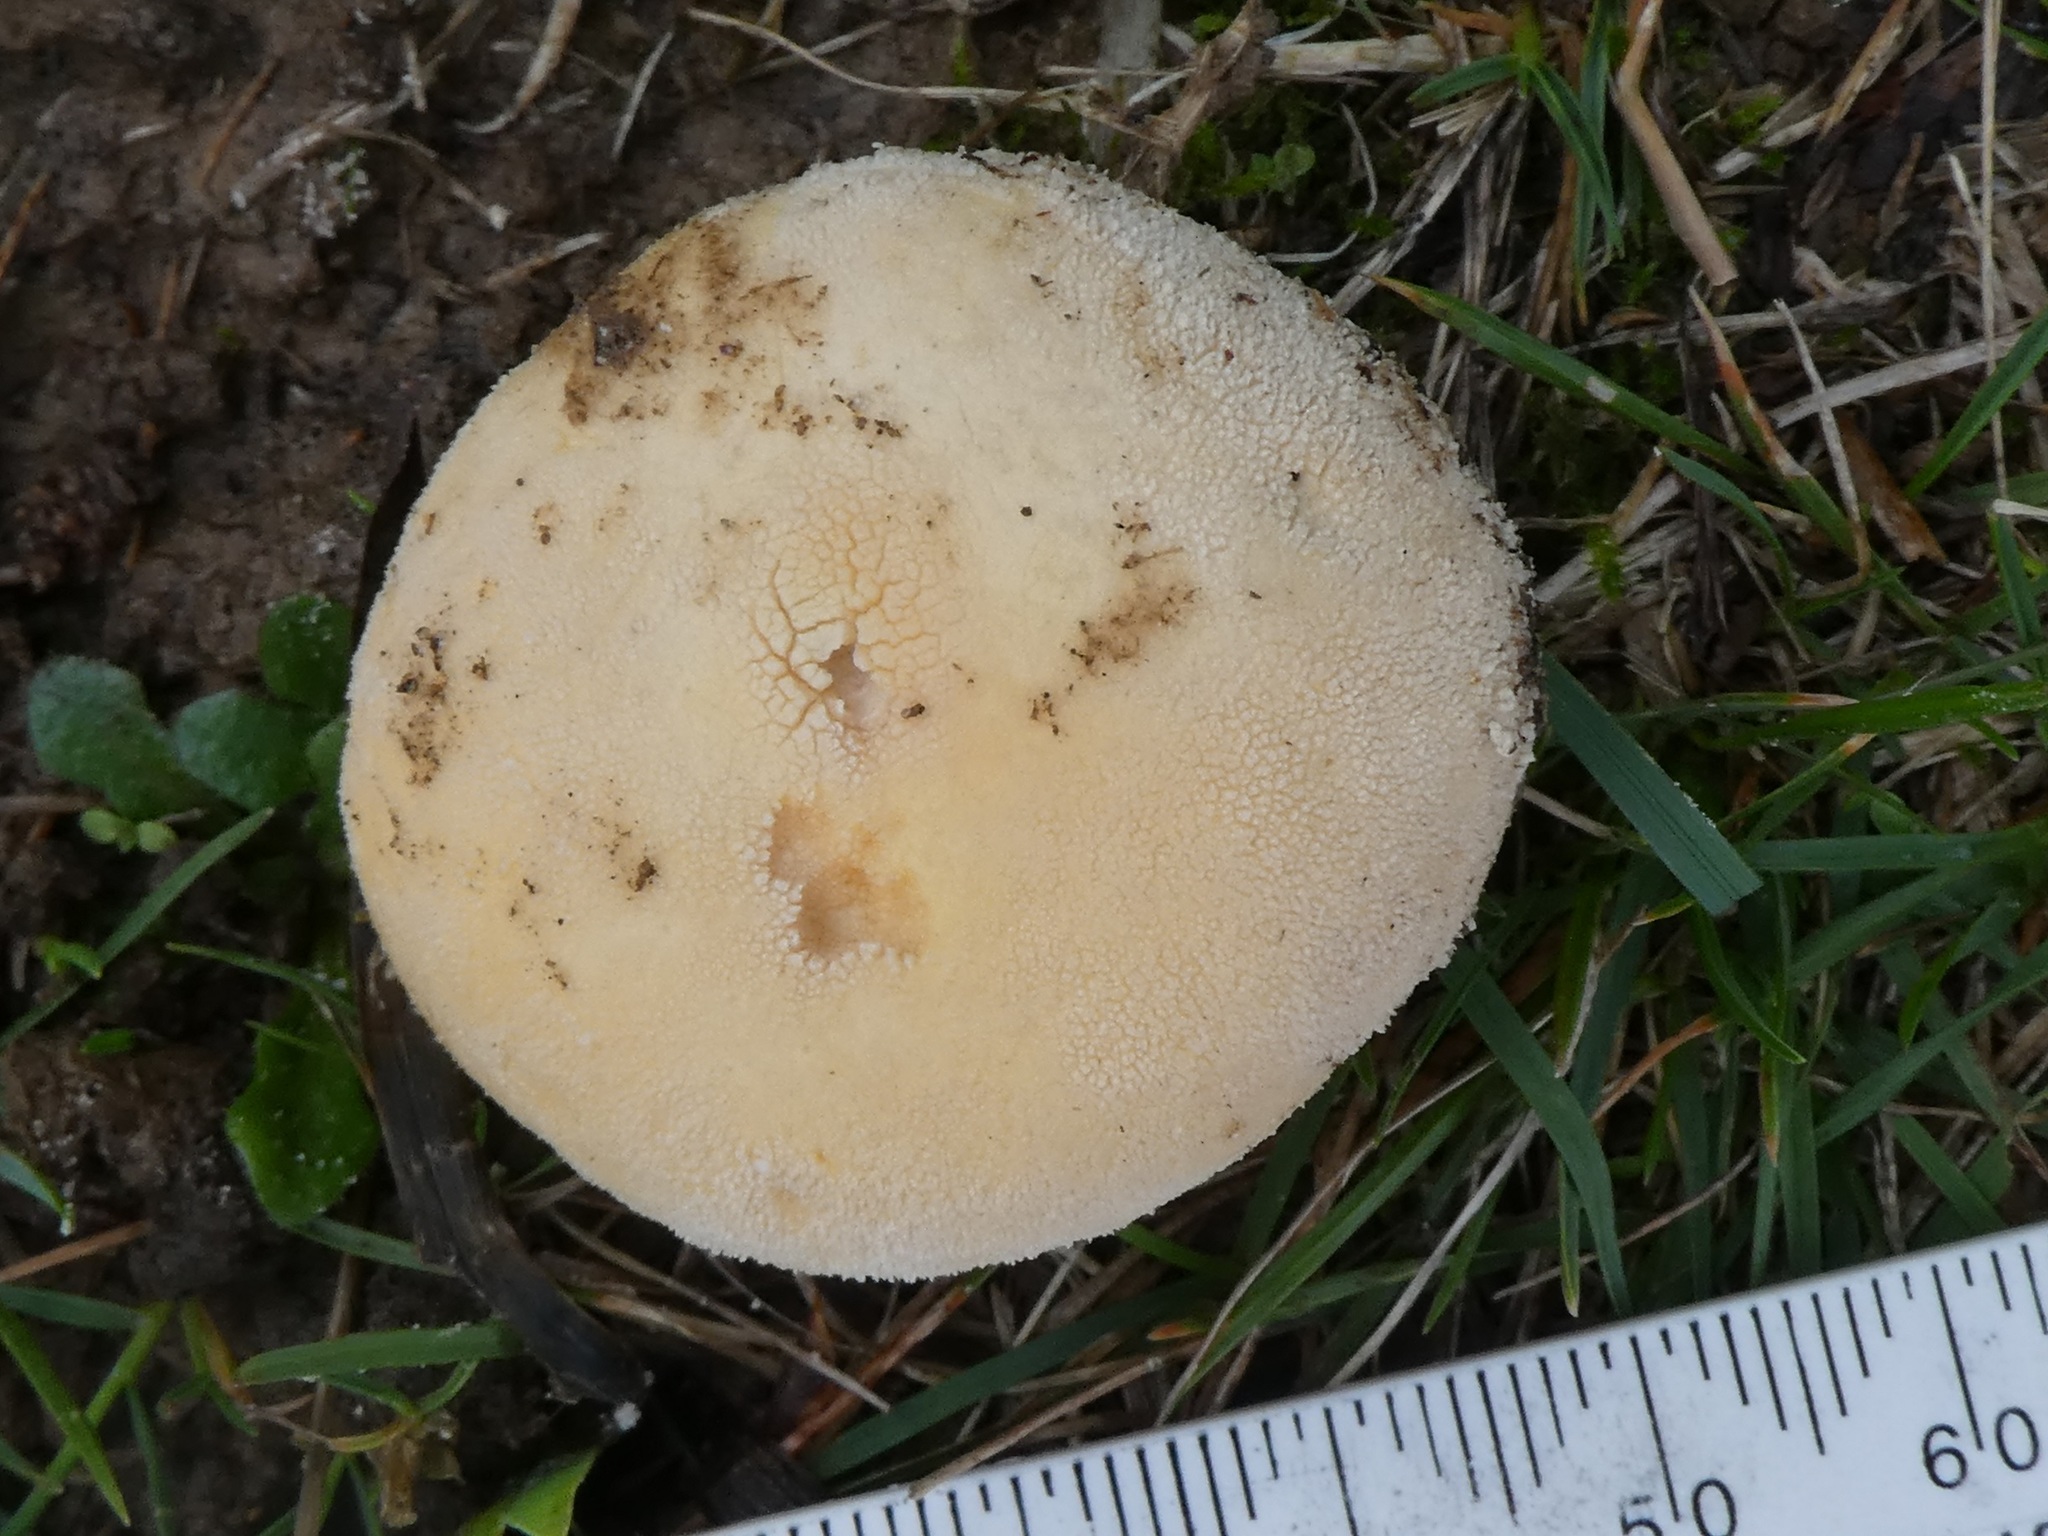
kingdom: Fungi
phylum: Basidiomycota
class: Agaricomycetes
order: Agaricales
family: Lycoperdaceae
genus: Lycoperdon
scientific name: Lycoperdon pratense
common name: Meadow puffball
